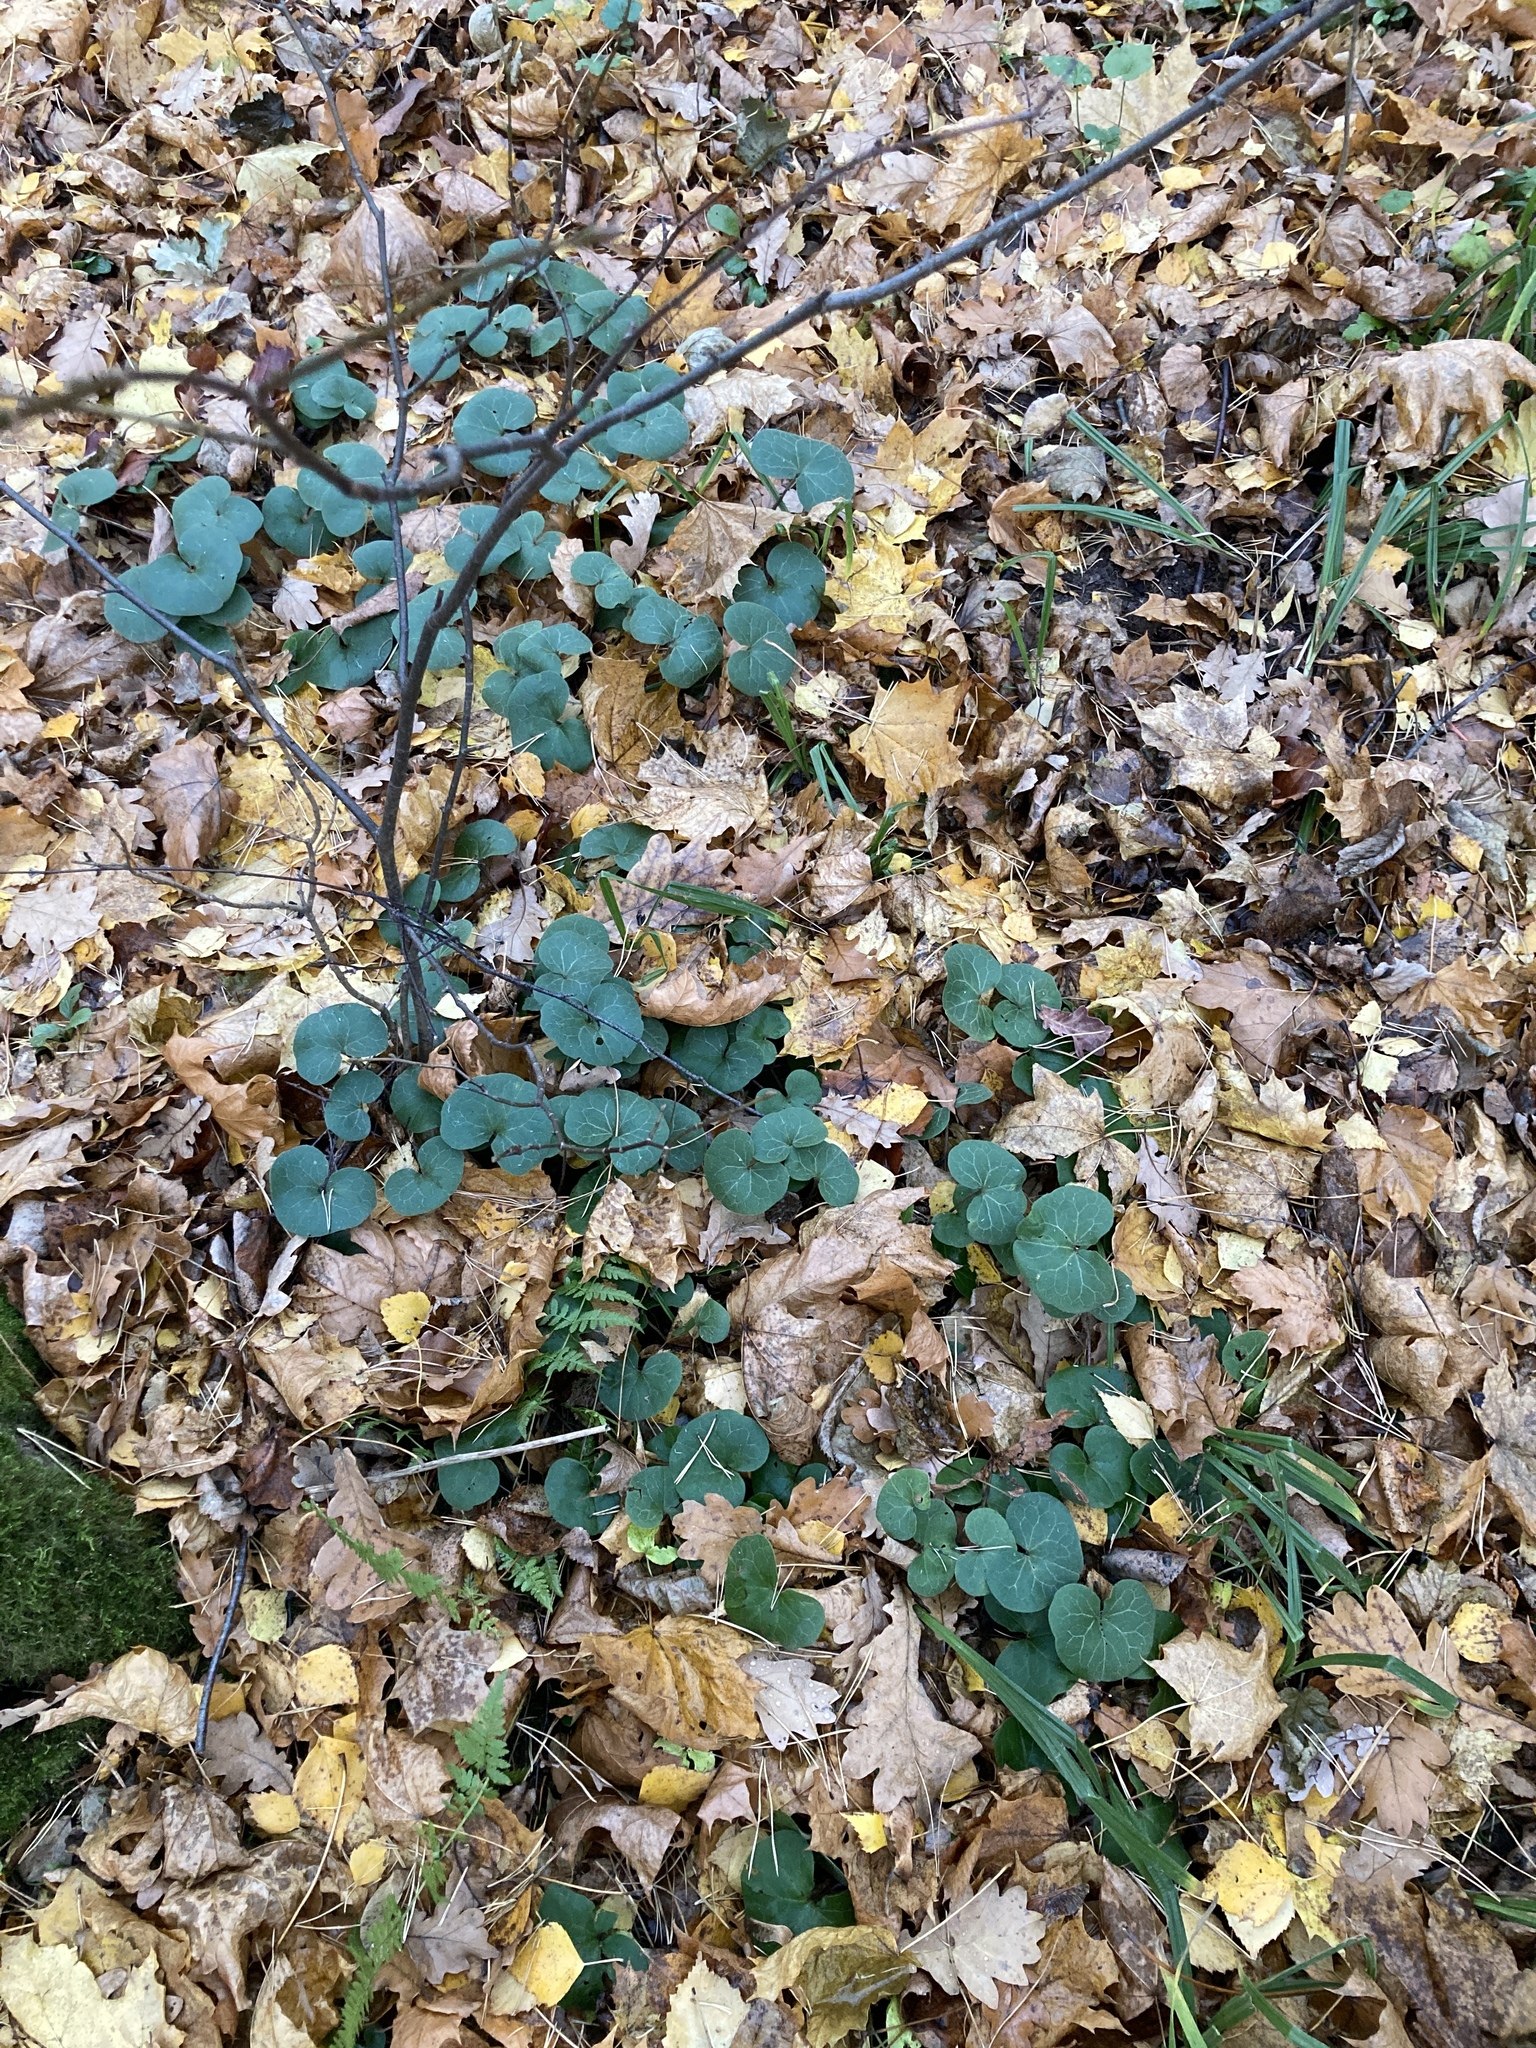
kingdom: Plantae
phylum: Tracheophyta
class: Magnoliopsida
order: Piperales
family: Aristolochiaceae
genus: Asarum
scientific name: Asarum europaeum
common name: Asarabacca
